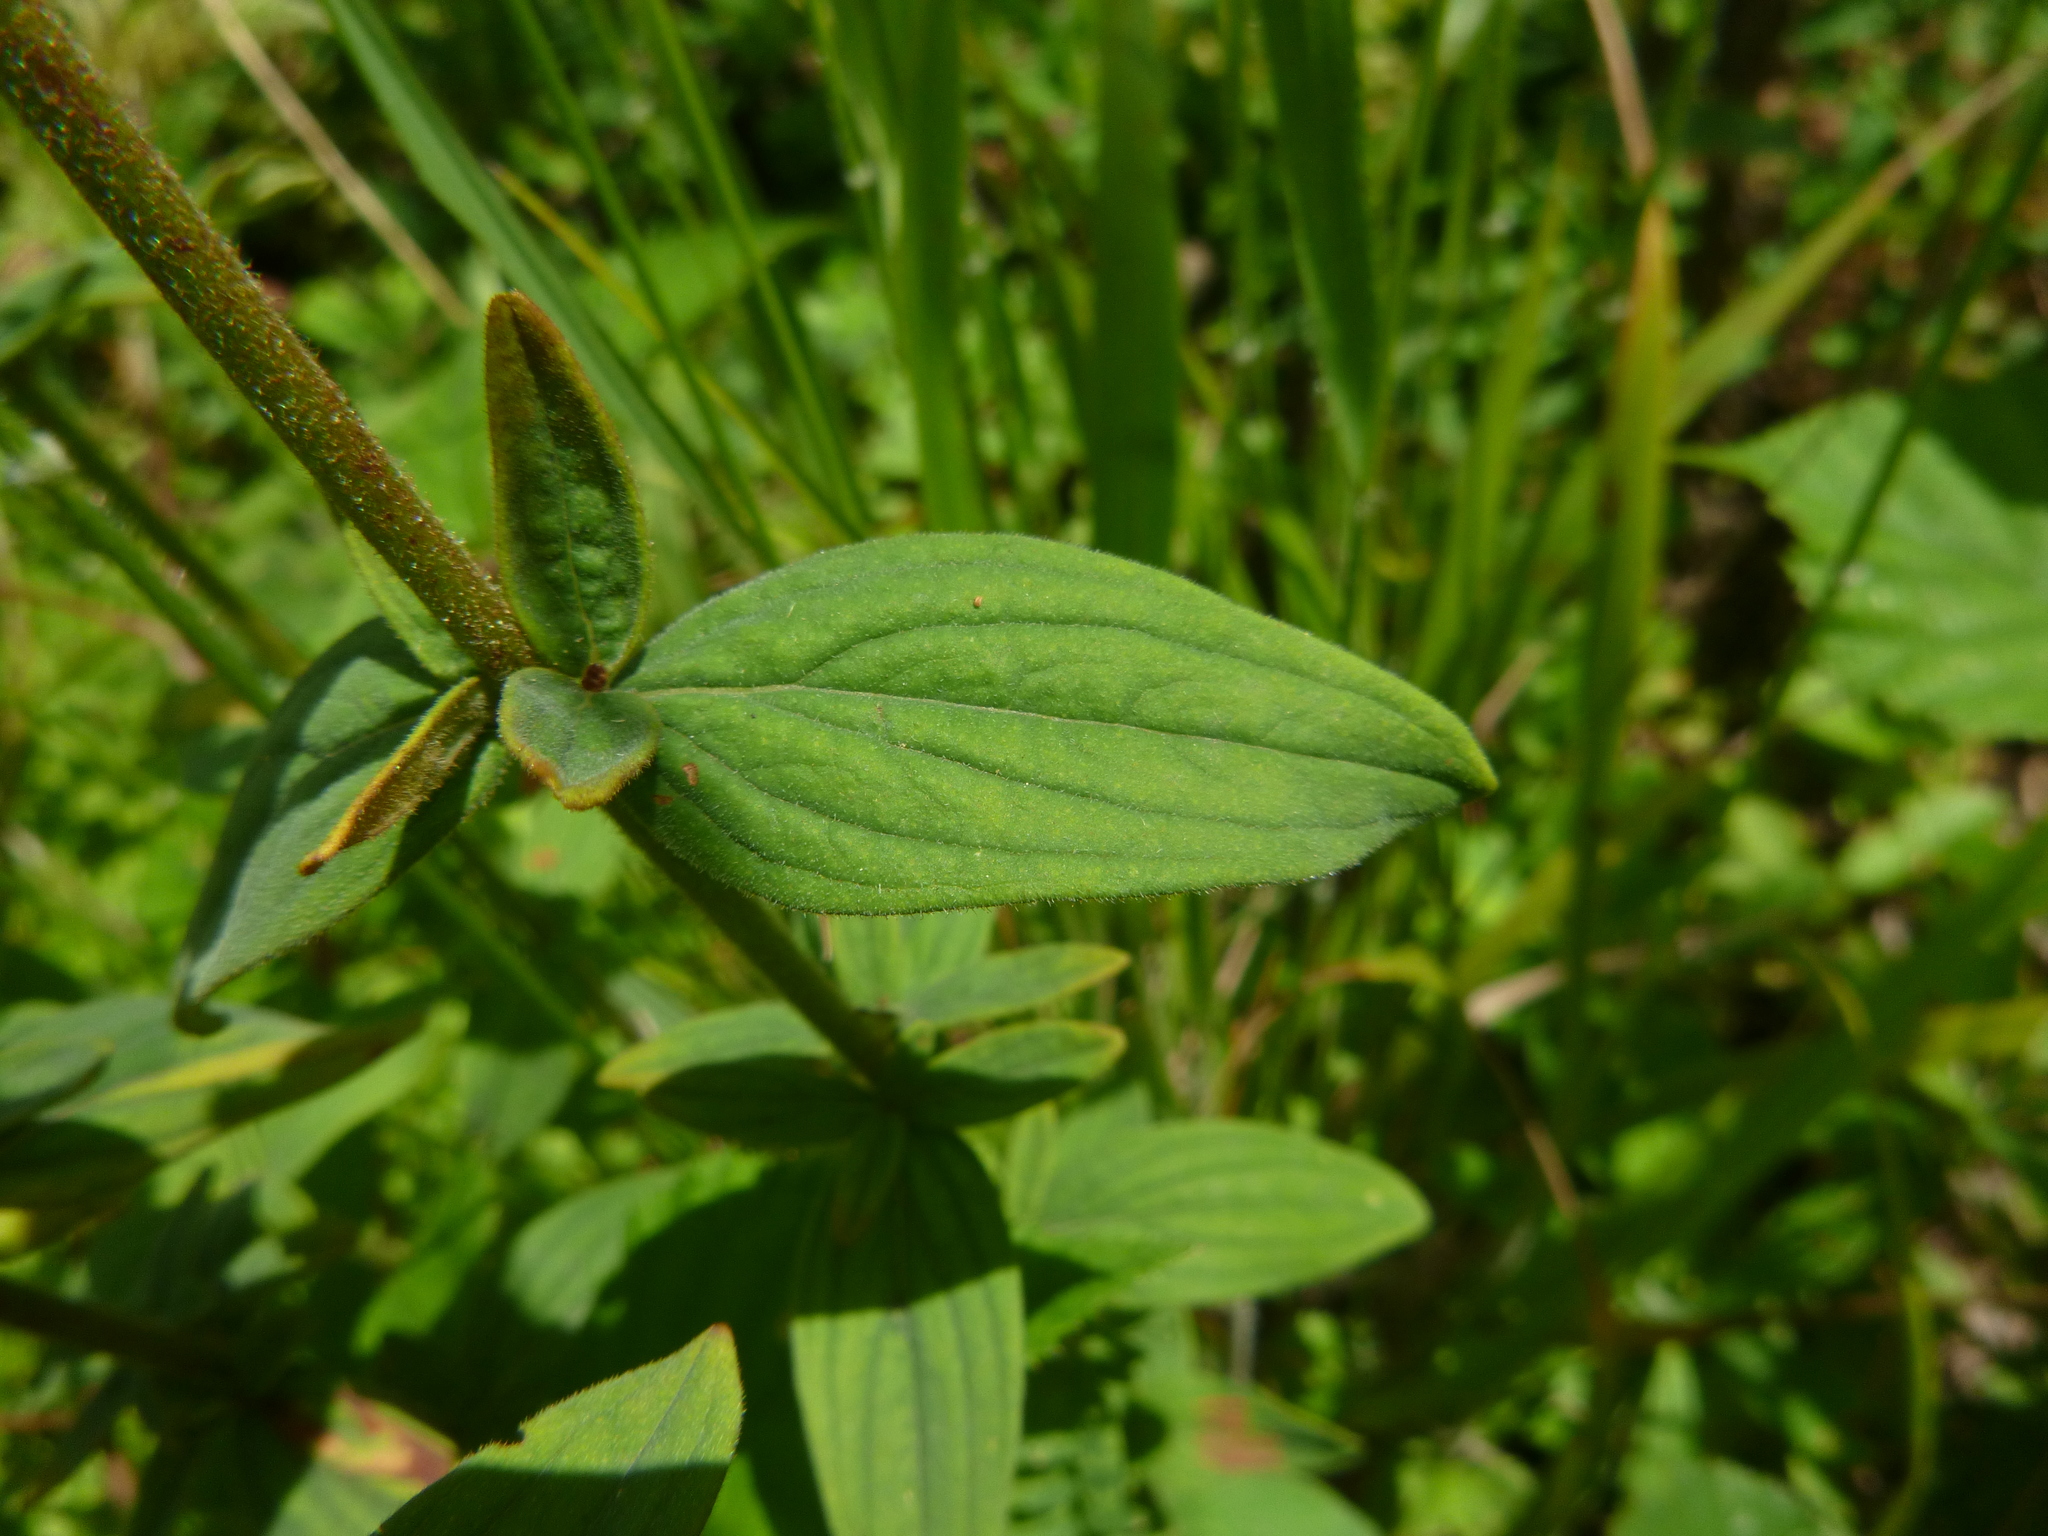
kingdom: Plantae
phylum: Tracheophyta
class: Magnoliopsida
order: Malpighiales
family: Hypericaceae
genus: Hypericum
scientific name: Hypericum hirsutum
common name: Hairy st. john's-wort
